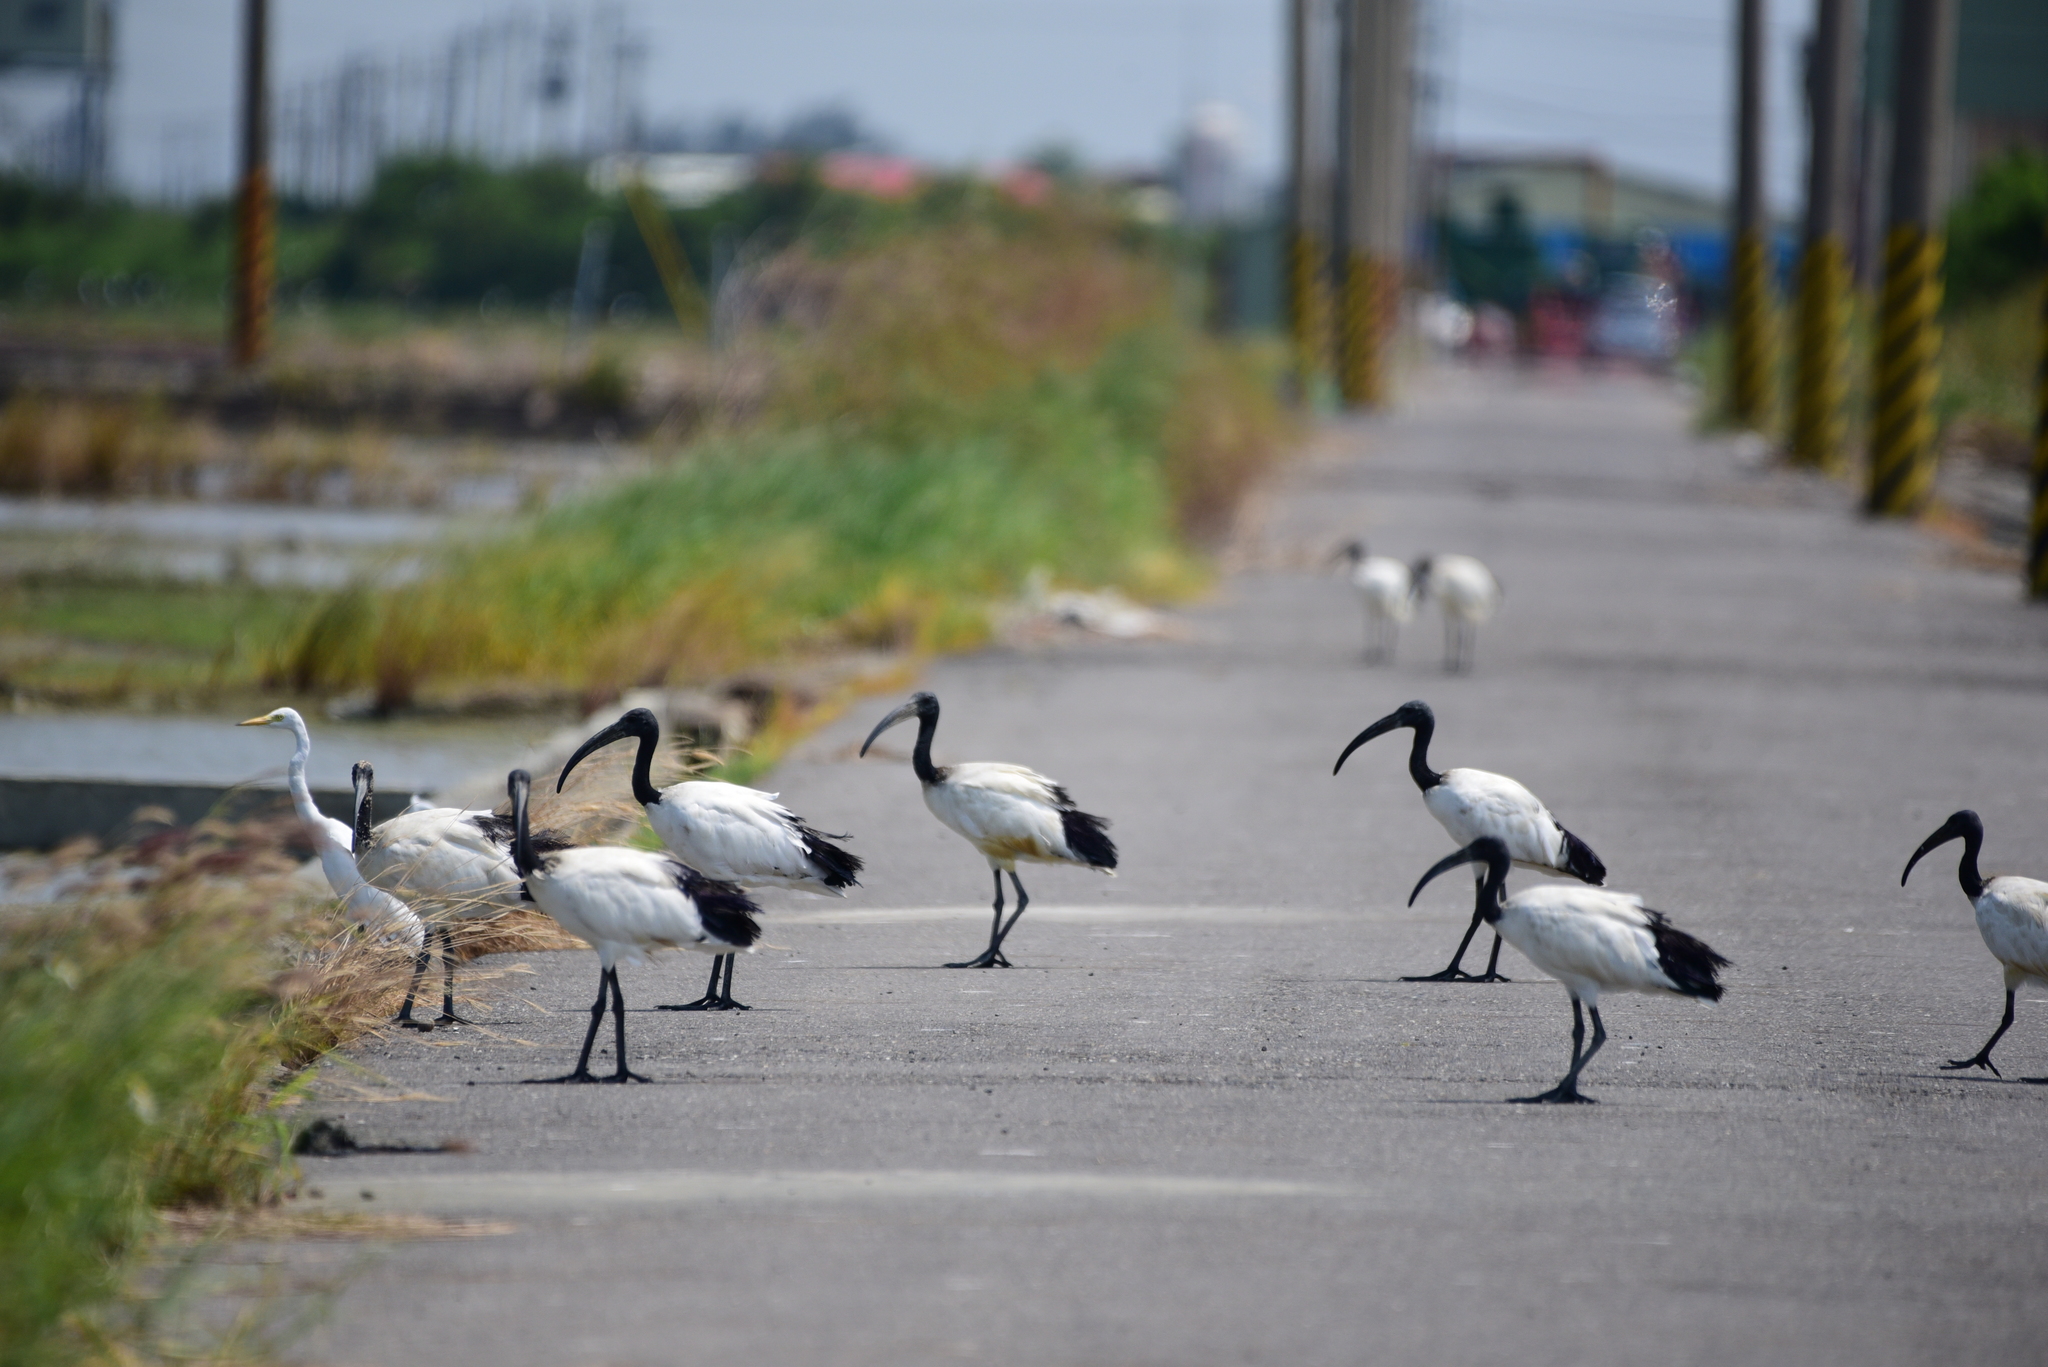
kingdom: Animalia
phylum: Chordata
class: Aves
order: Pelecaniformes
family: Threskiornithidae
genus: Threskiornis
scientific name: Threskiornis aethiopicus
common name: Sacred ibis
